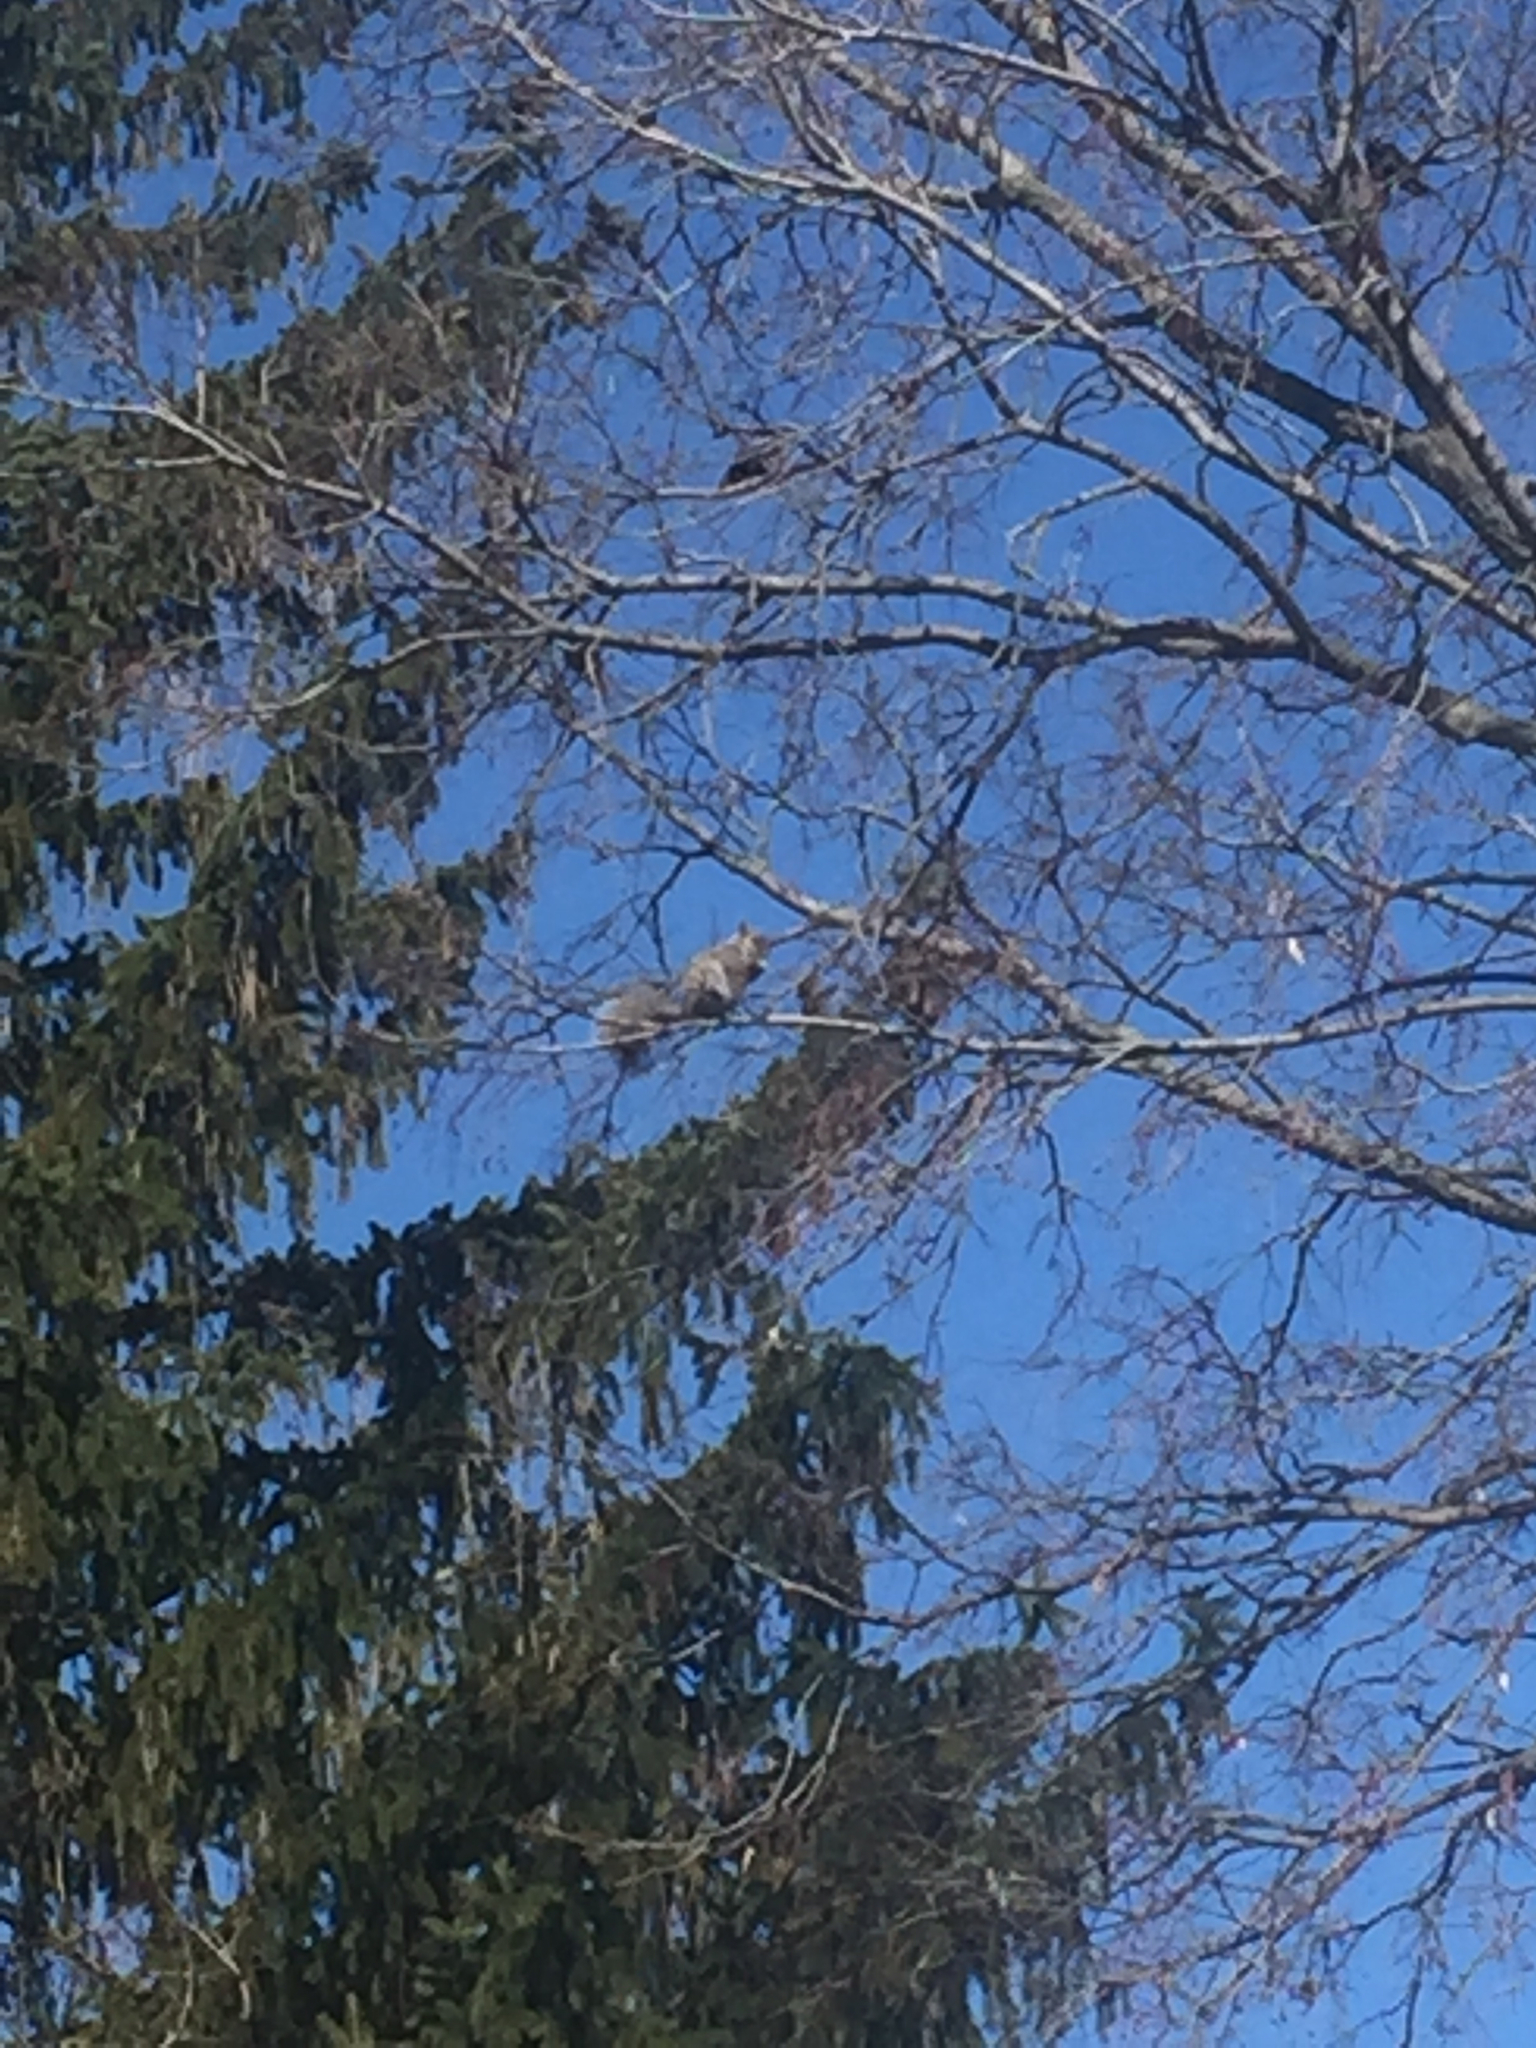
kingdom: Animalia
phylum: Chordata
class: Mammalia
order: Rodentia
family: Sciuridae
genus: Sciurus
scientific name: Sciurus carolinensis
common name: Eastern gray squirrel
